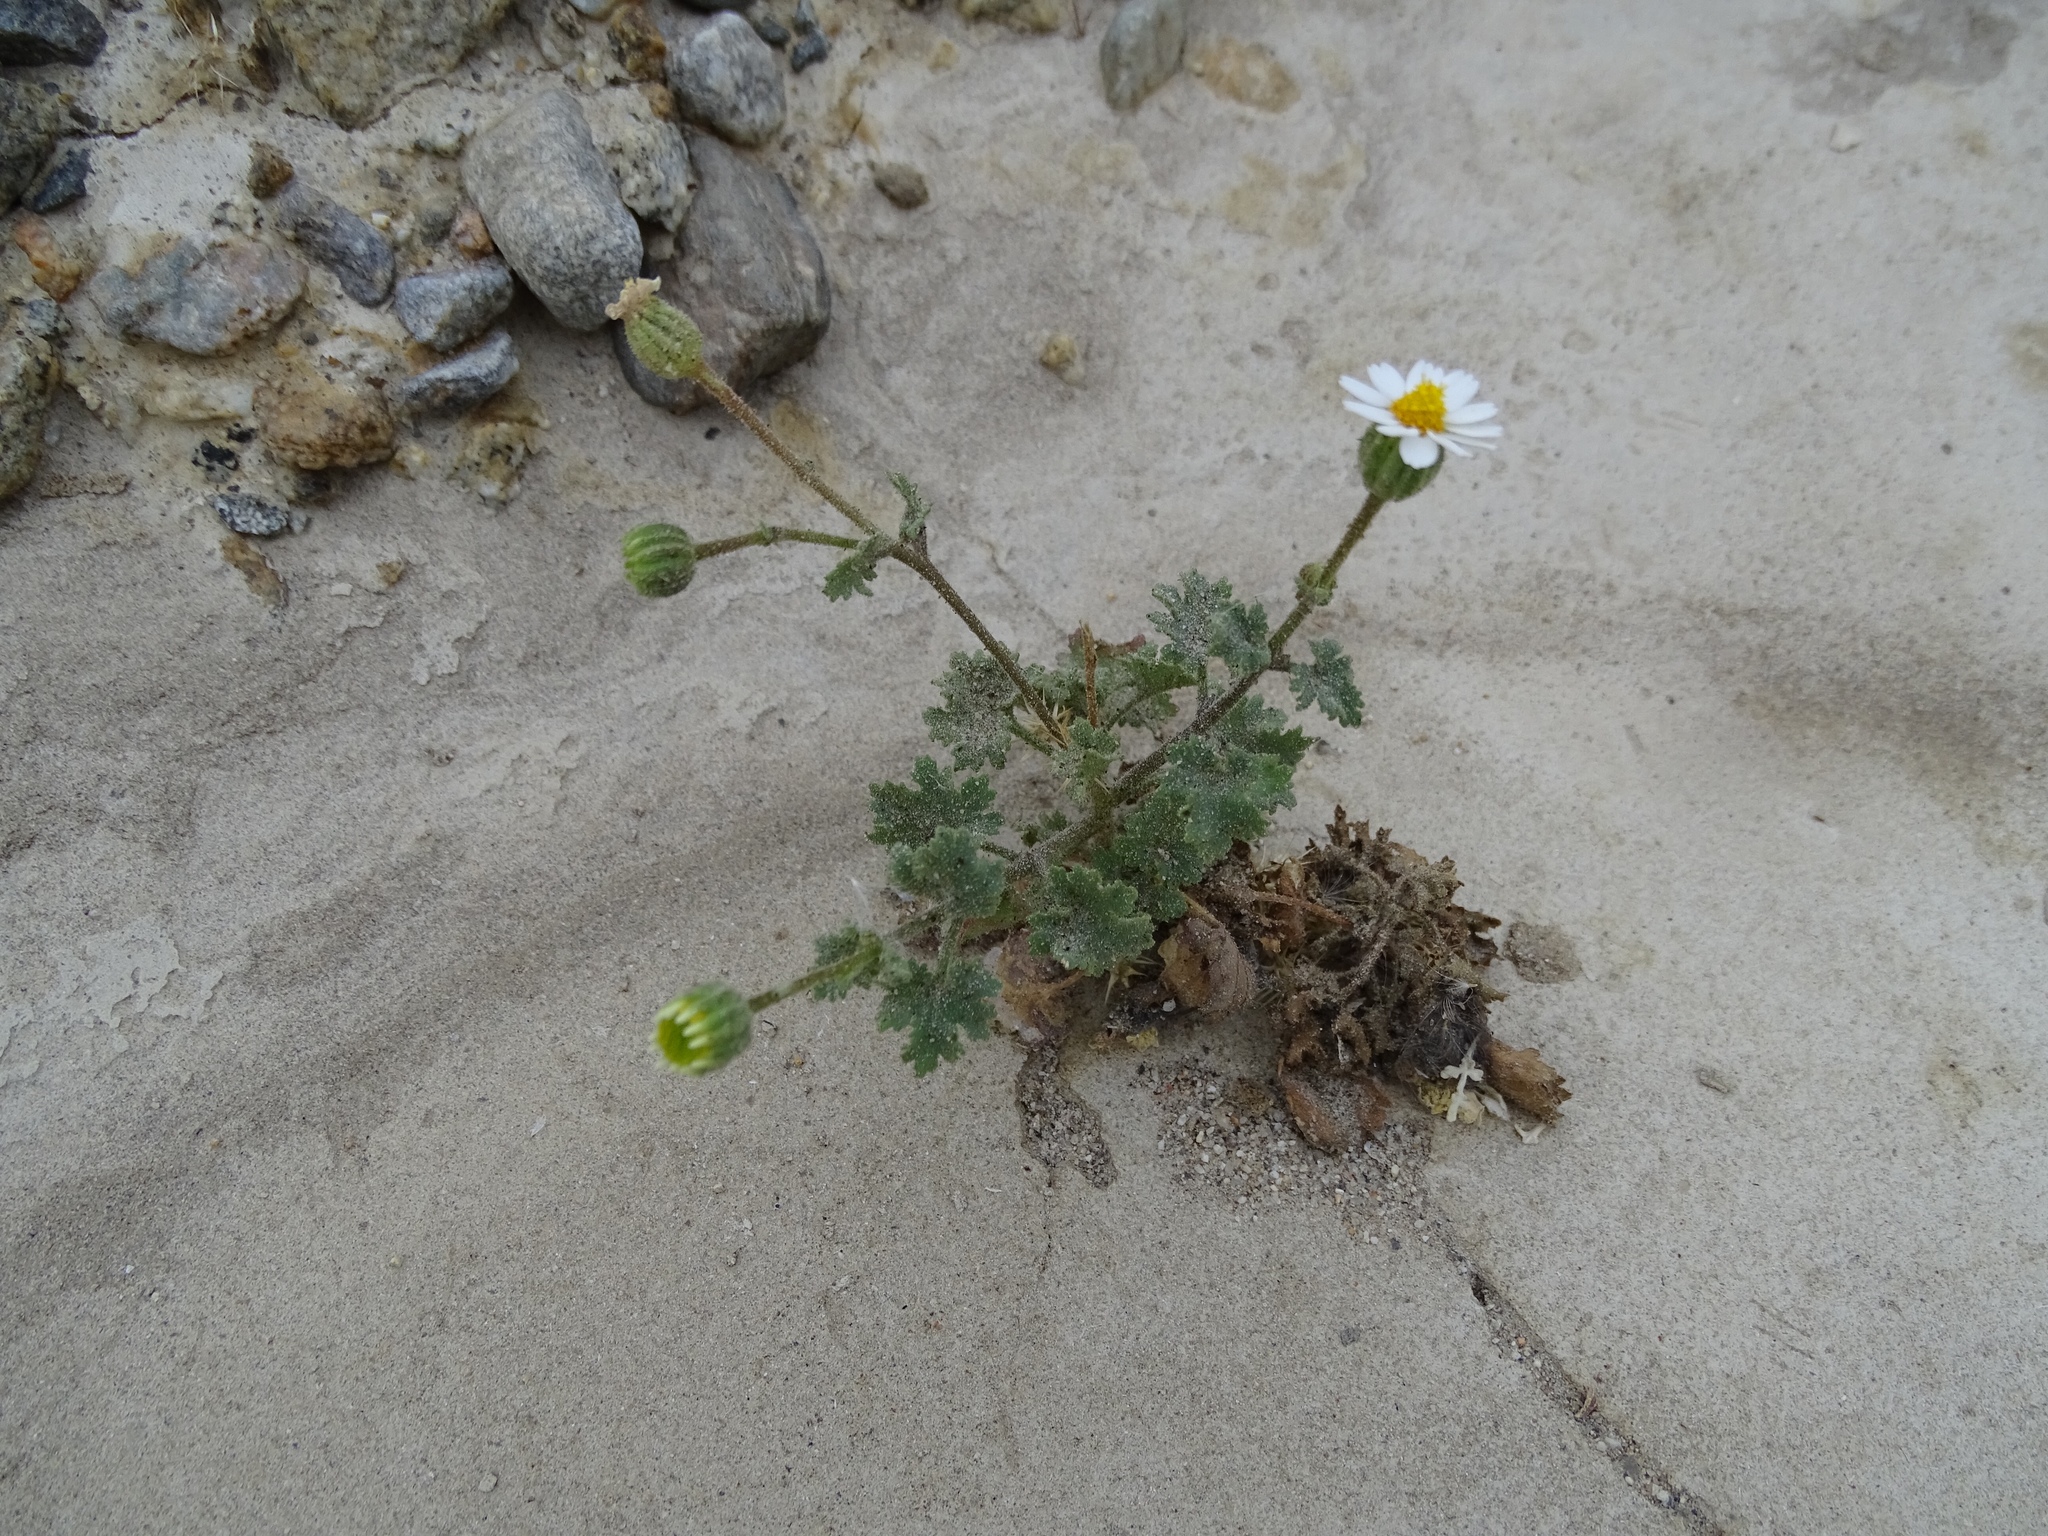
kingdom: Plantae
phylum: Tracheophyta
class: Magnoliopsida
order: Asterales
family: Asteraceae
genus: Laphamia
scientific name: Laphamia emoryi
